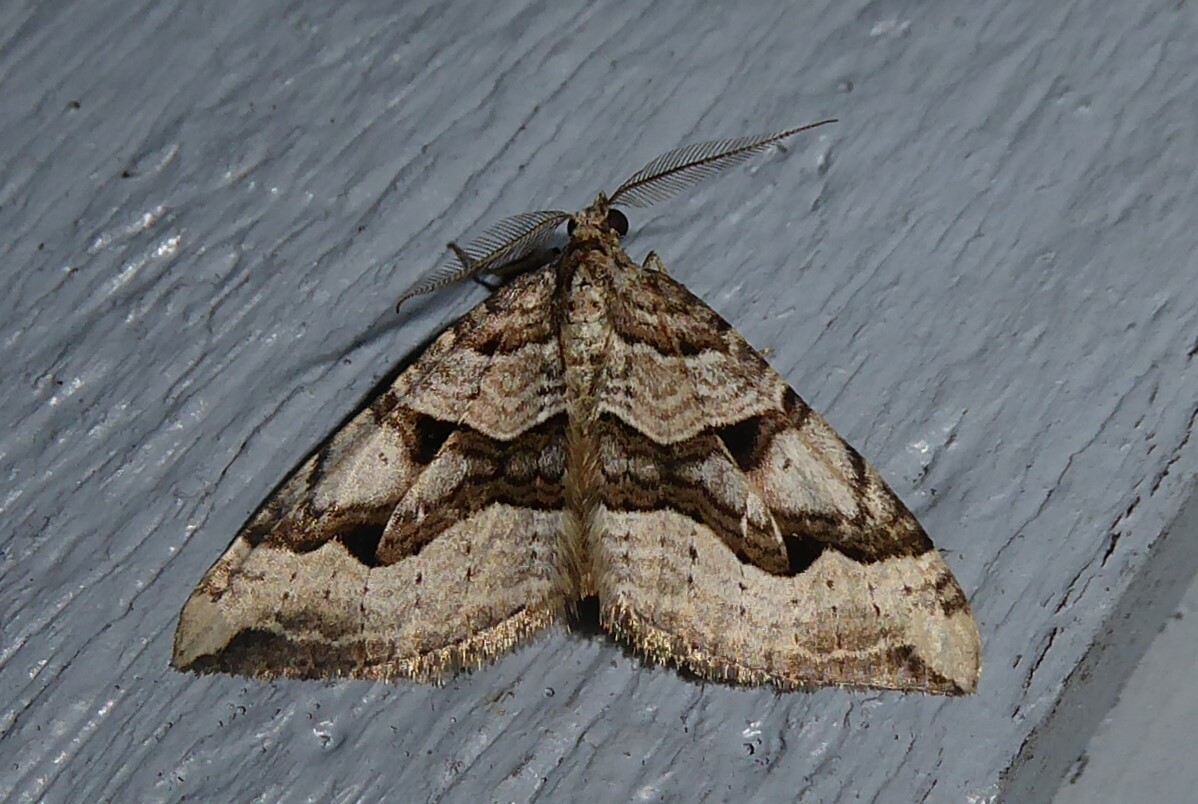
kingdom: Animalia
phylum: Arthropoda
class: Insecta
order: Lepidoptera
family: Geometridae
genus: Xanthorhoe
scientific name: Xanthorhoe semifissata
